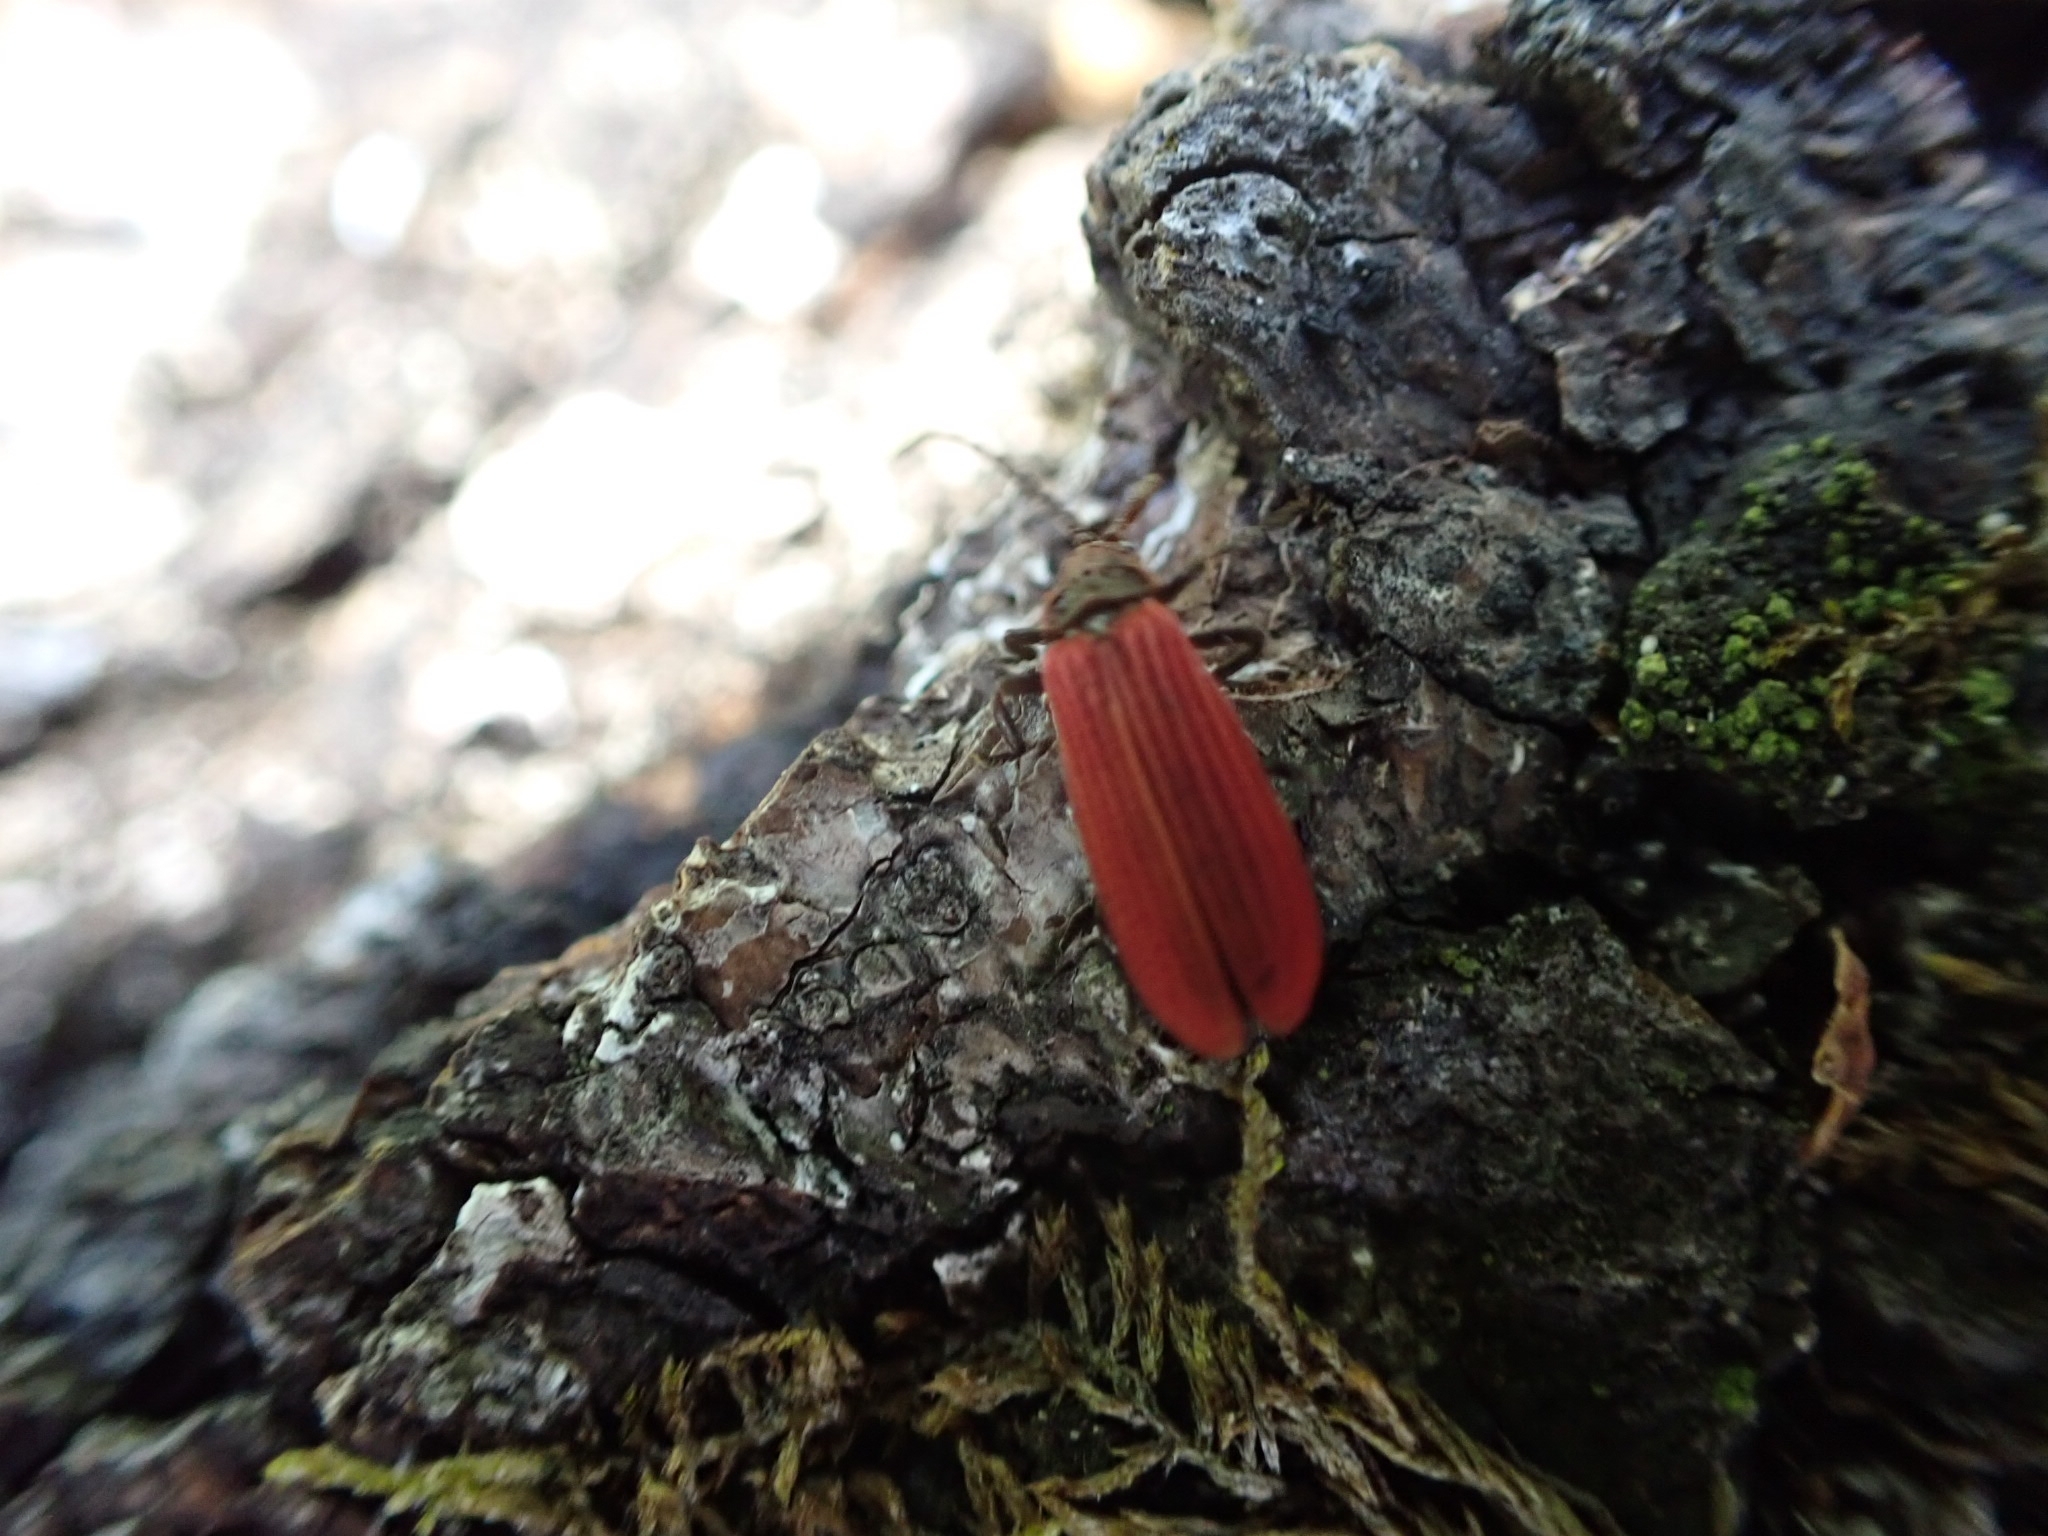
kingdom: Animalia
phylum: Arthropoda
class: Insecta
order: Coleoptera
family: Lycidae
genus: Xylobanellus
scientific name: Xylobanellus erythropterus
